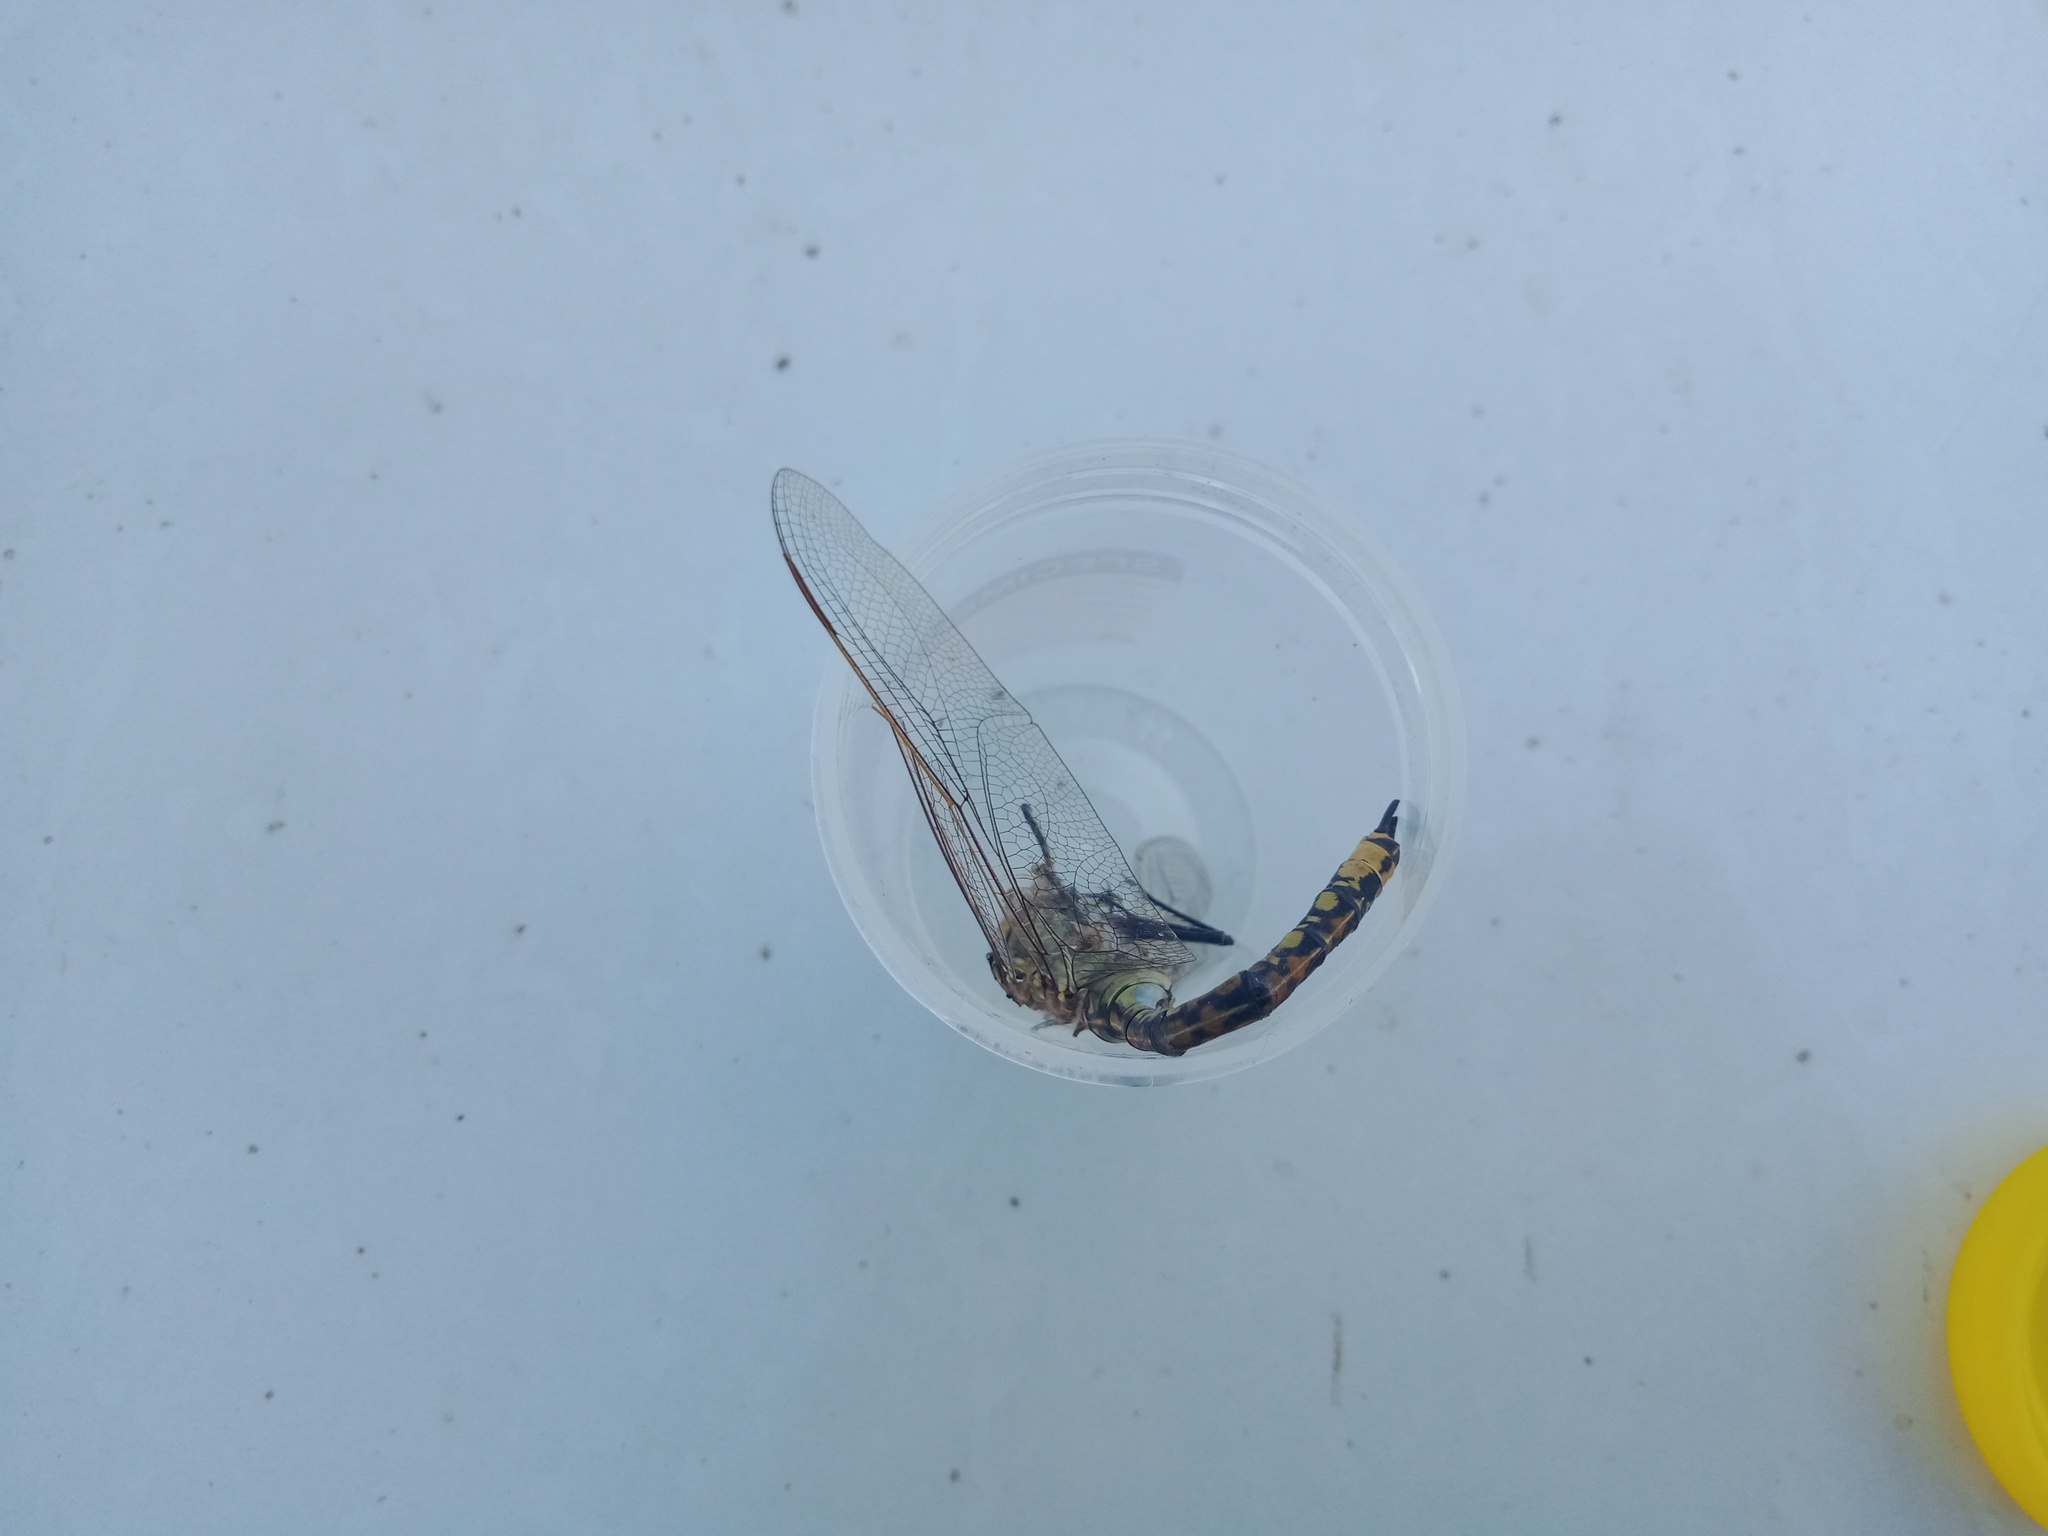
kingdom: Animalia
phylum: Arthropoda
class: Insecta
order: Odonata
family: Aeshnidae
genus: Anax
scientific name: Anax papuensis
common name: Australian emperor
